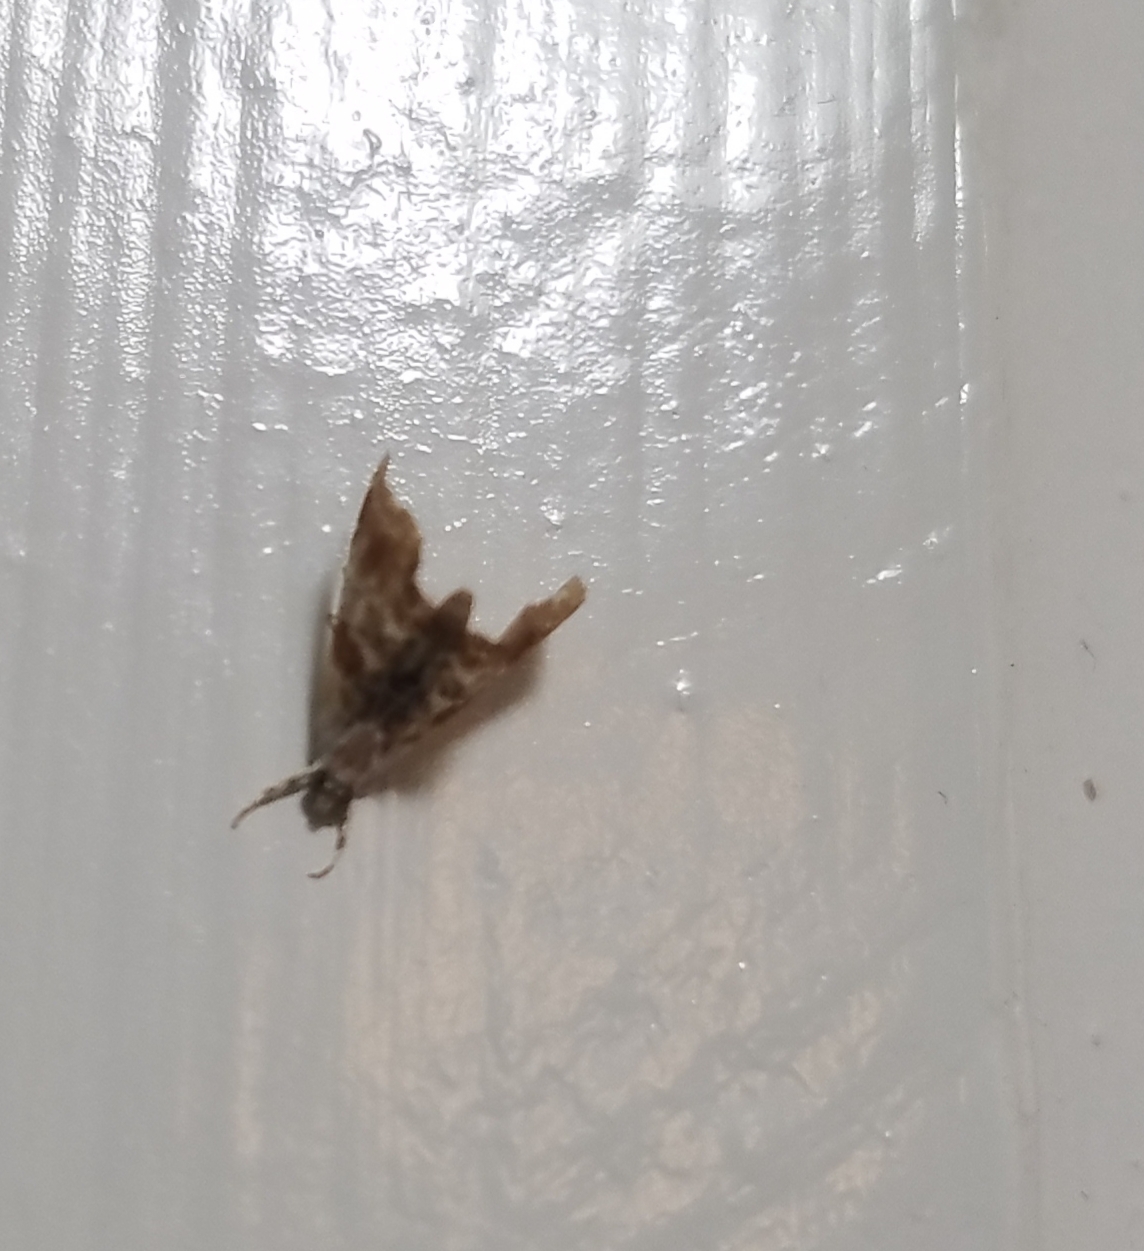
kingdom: Animalia
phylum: Arthropoda
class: Insecta
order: Lepidoptera
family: Crambidae
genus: Dicymolomia
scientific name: Dicymolomia julianalis
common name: Julia's dicymolomia moth
